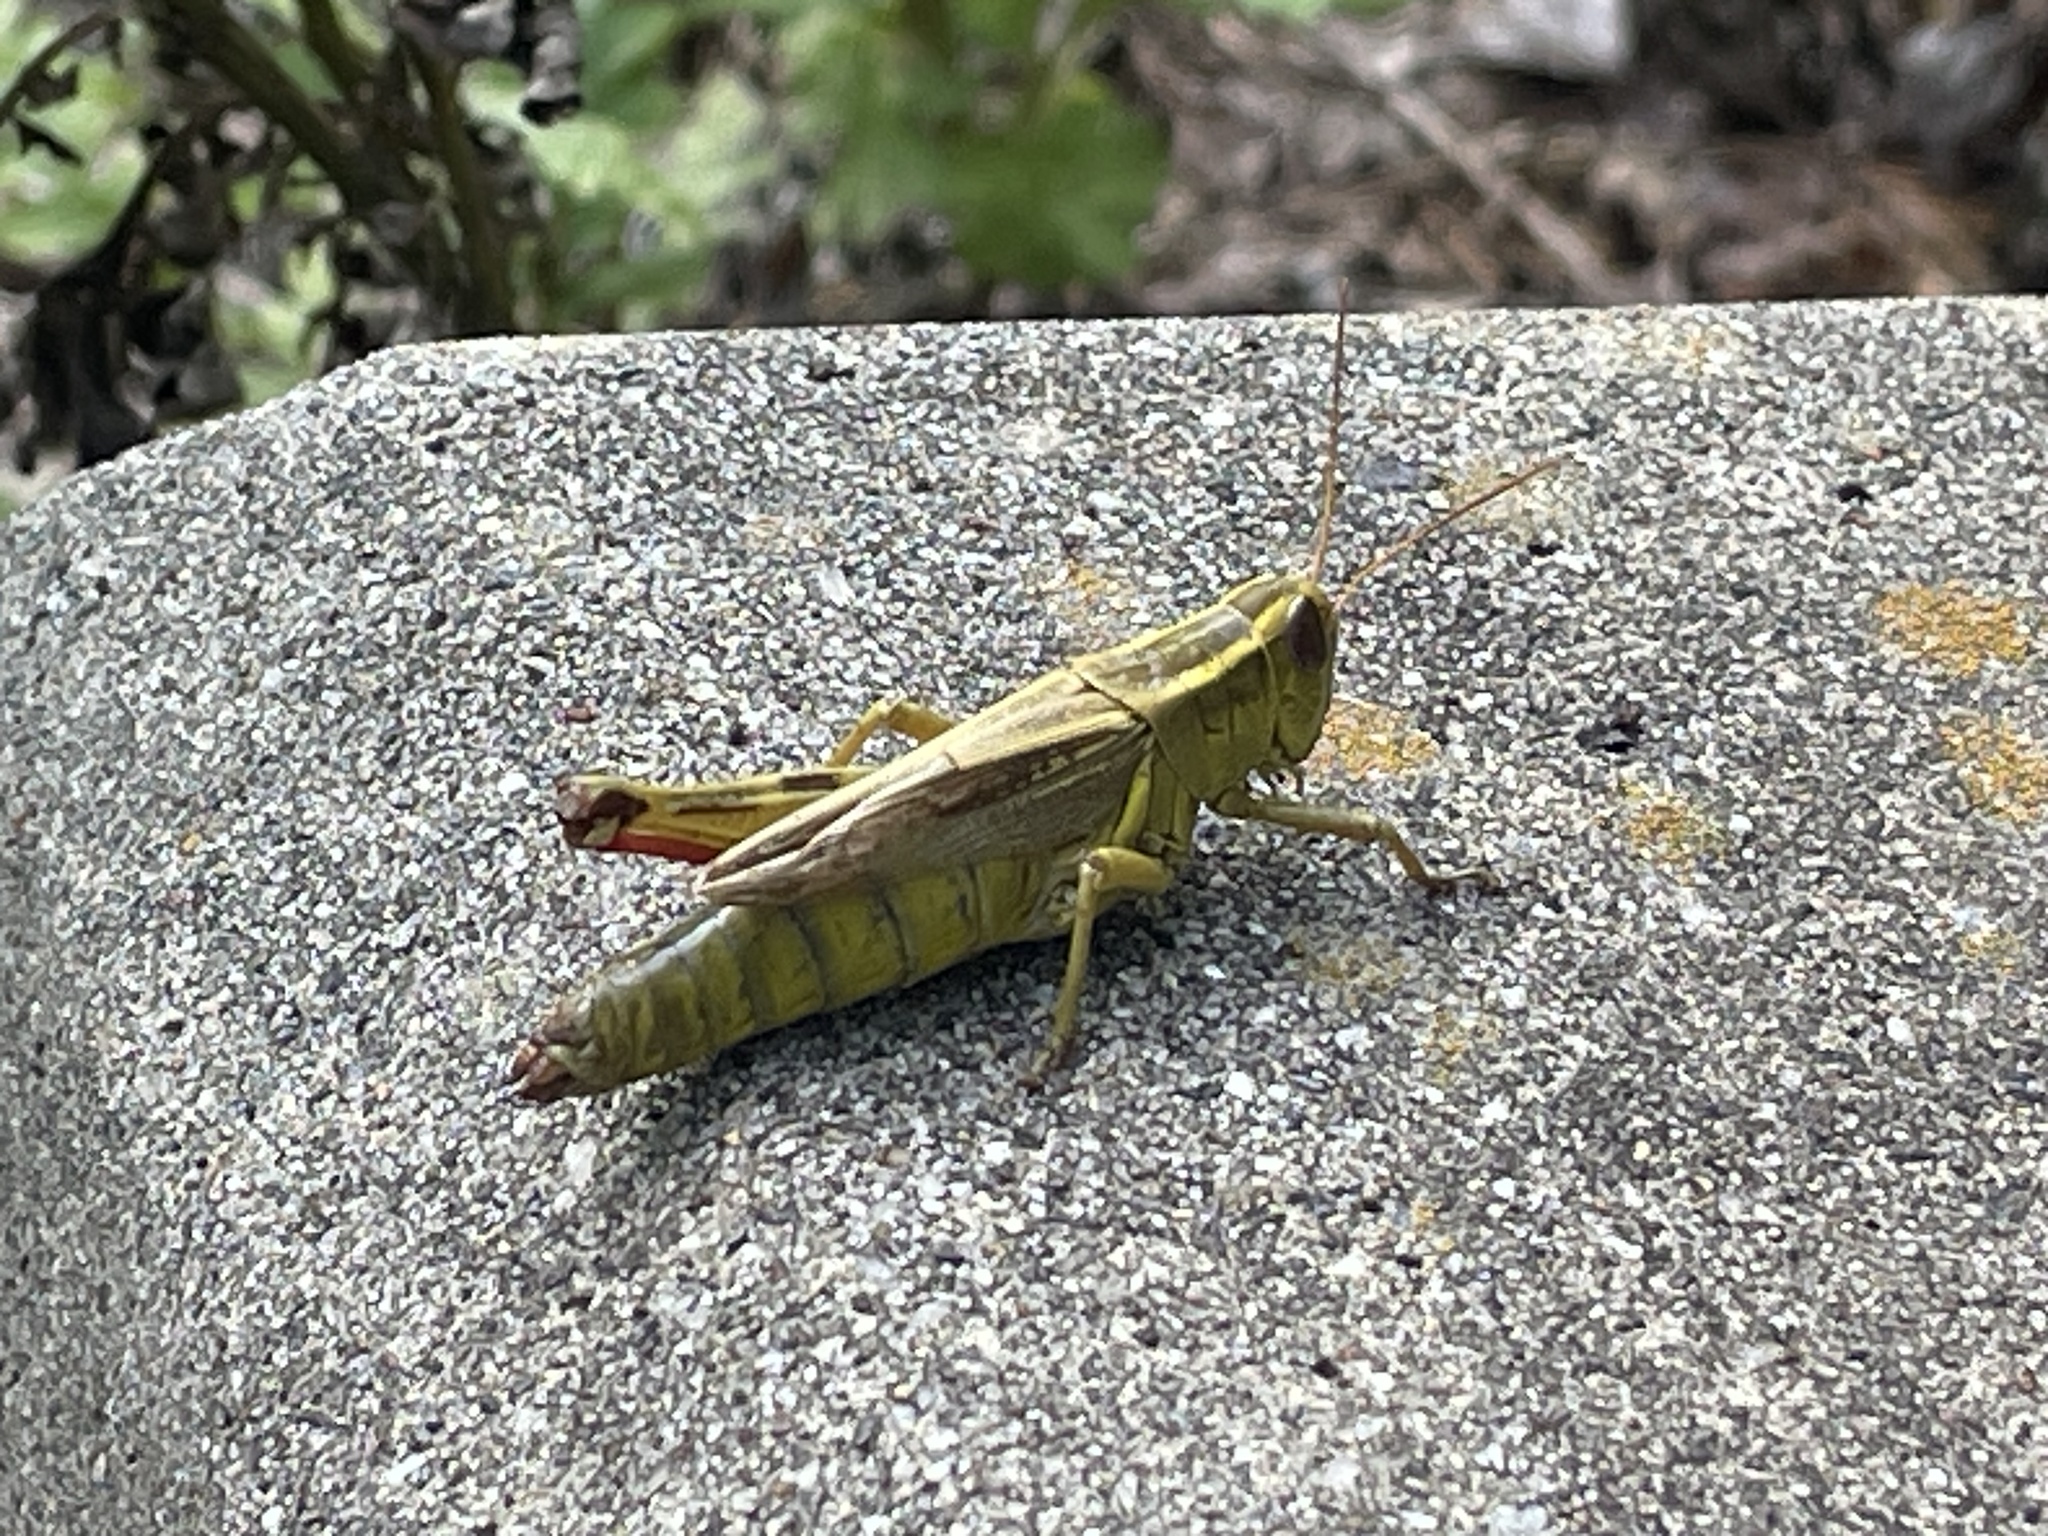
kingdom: Animalia
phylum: Arthropoda
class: Insecta
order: Orthoptera
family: Acrididae
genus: Melanoplus
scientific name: Melanoplus bivittatus
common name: Two-striped grasshopper
